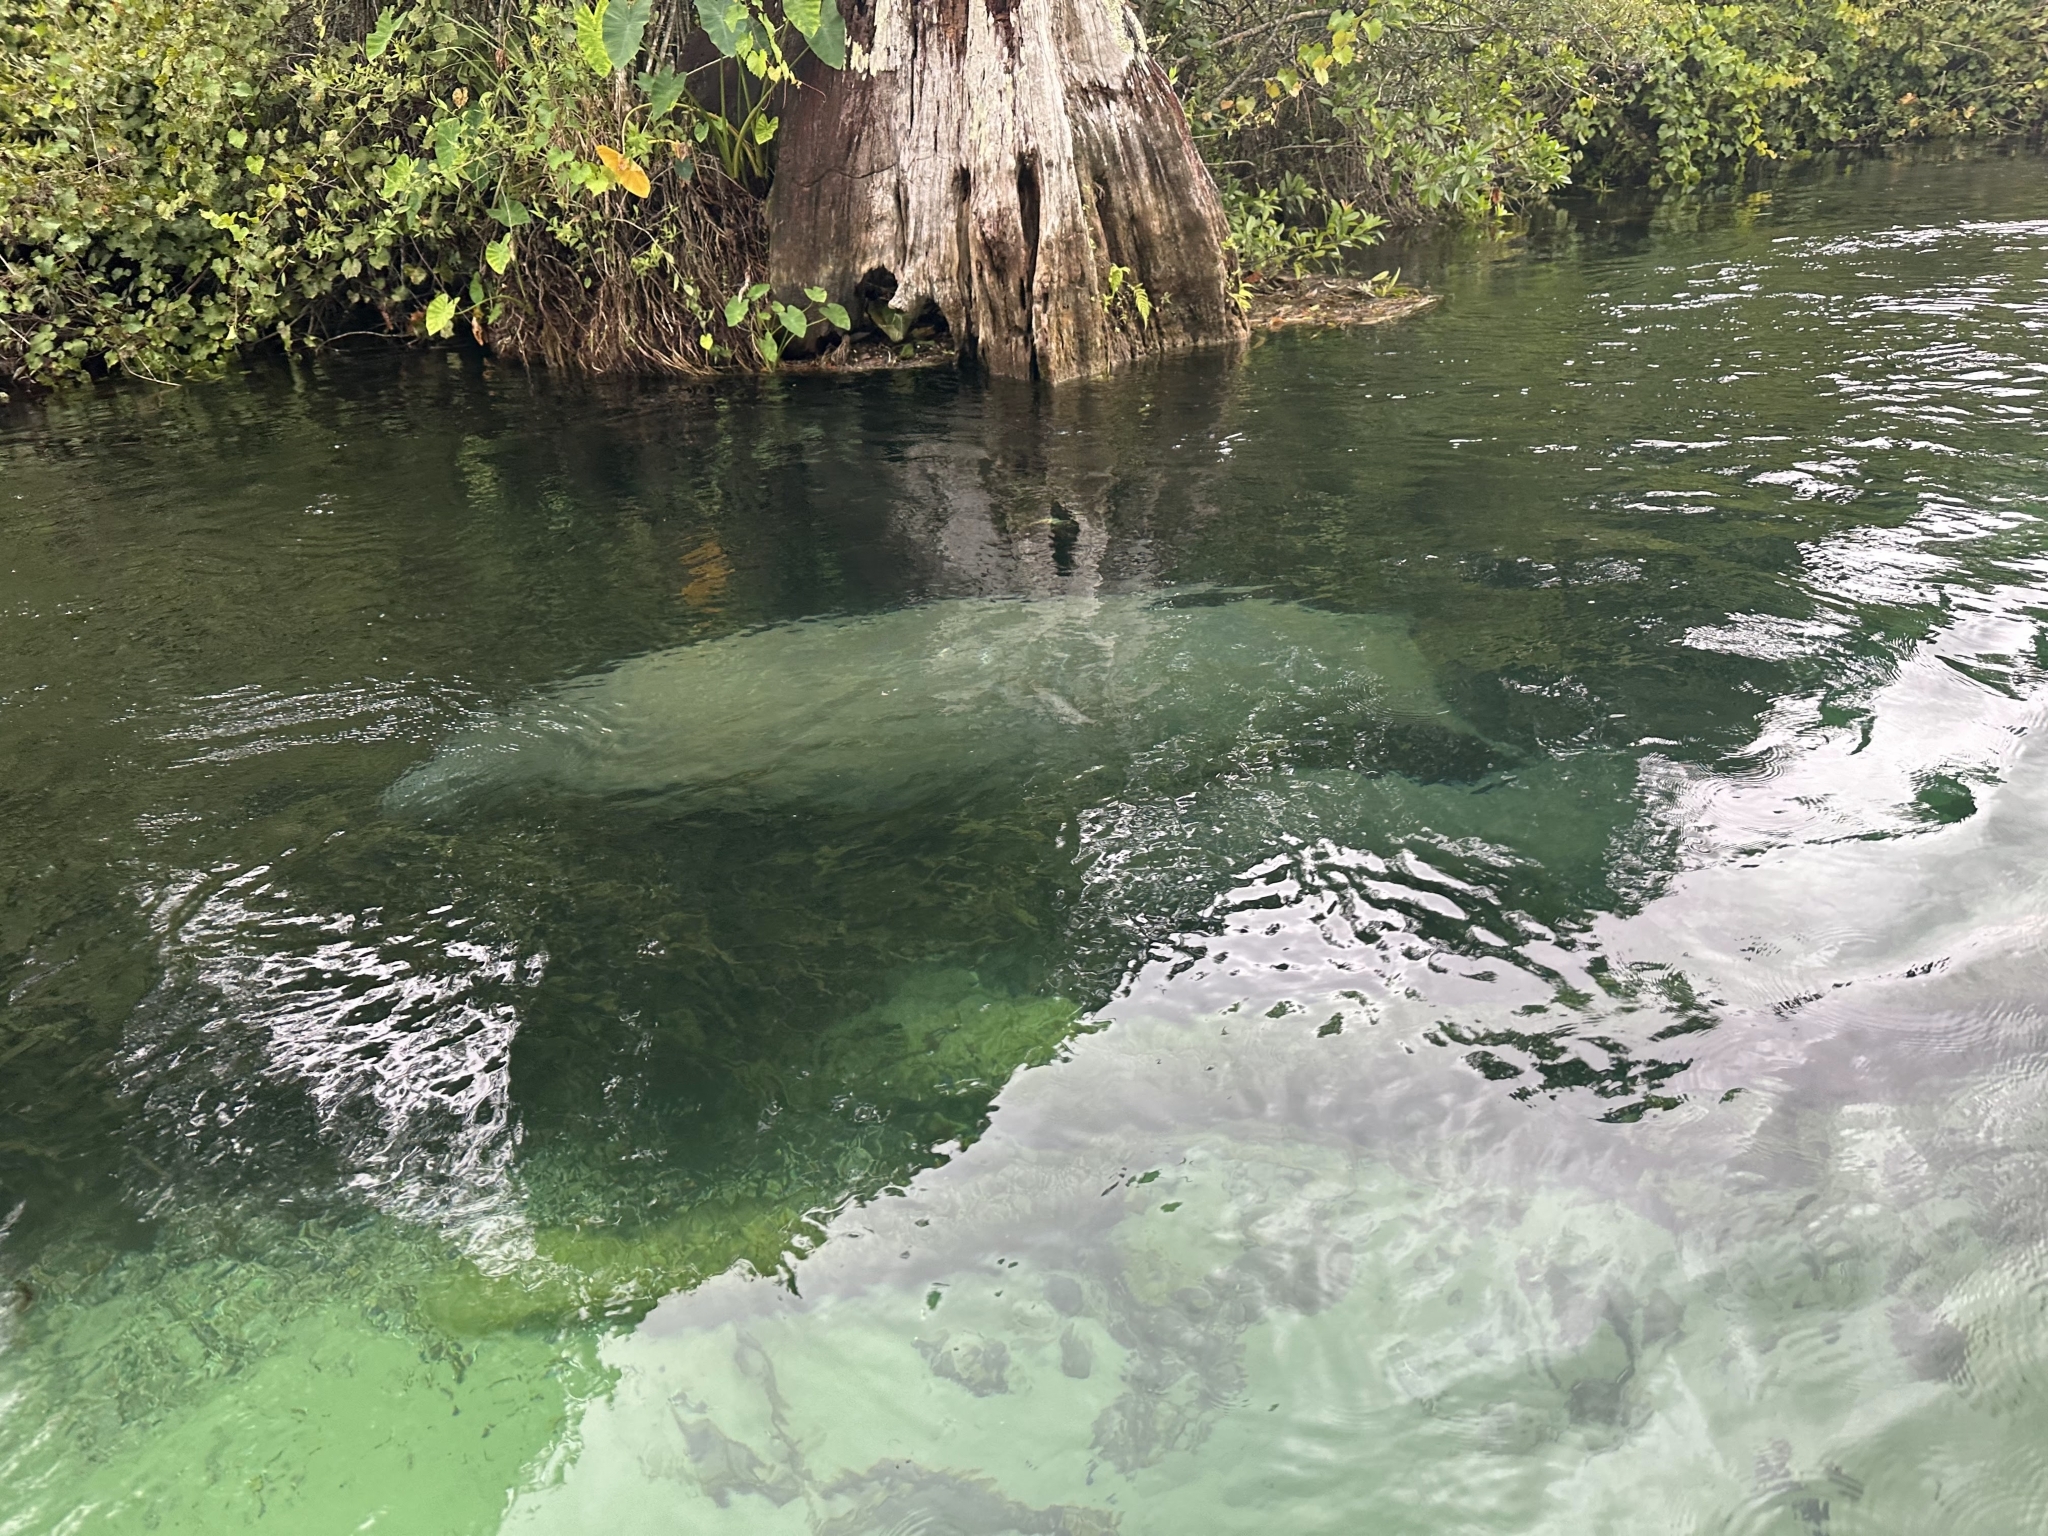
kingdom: Animalia
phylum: Chordata
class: Mammalia
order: Sirenia
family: Trichechidae
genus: Trichechus
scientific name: Trichechus manatus
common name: West indian manatee
